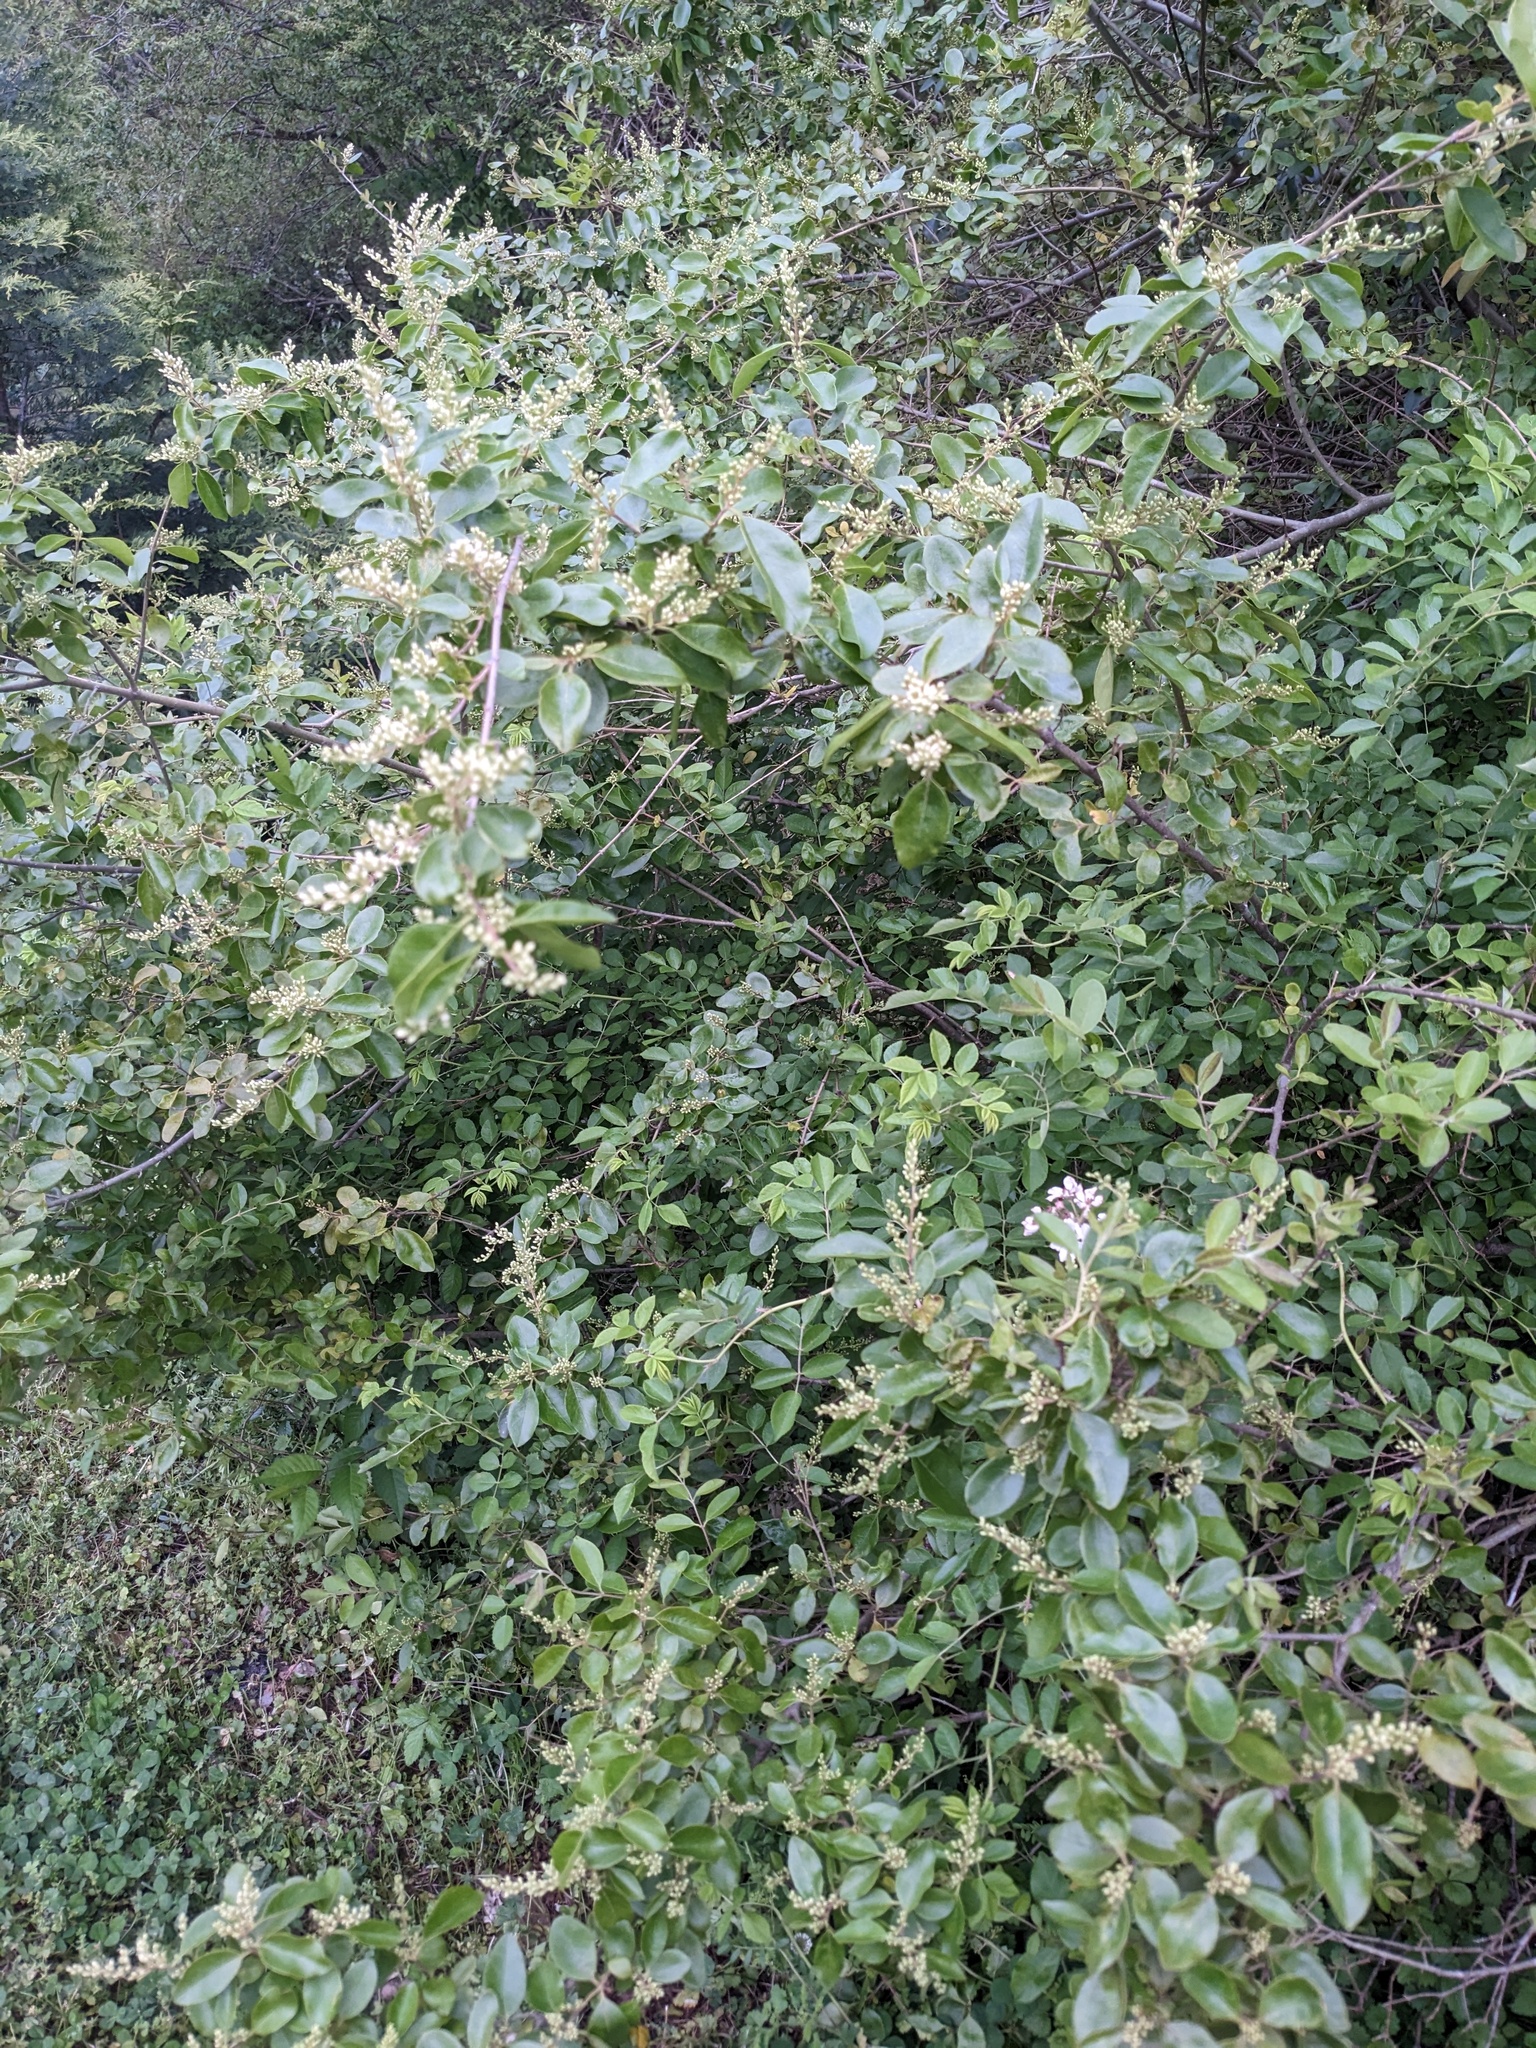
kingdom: Plantae
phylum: Tracheophyta
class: Magnoliopsida
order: Lamiales
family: Oleaceae
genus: Ligustrum
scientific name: Ligustrum sinense
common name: Chinese privet
